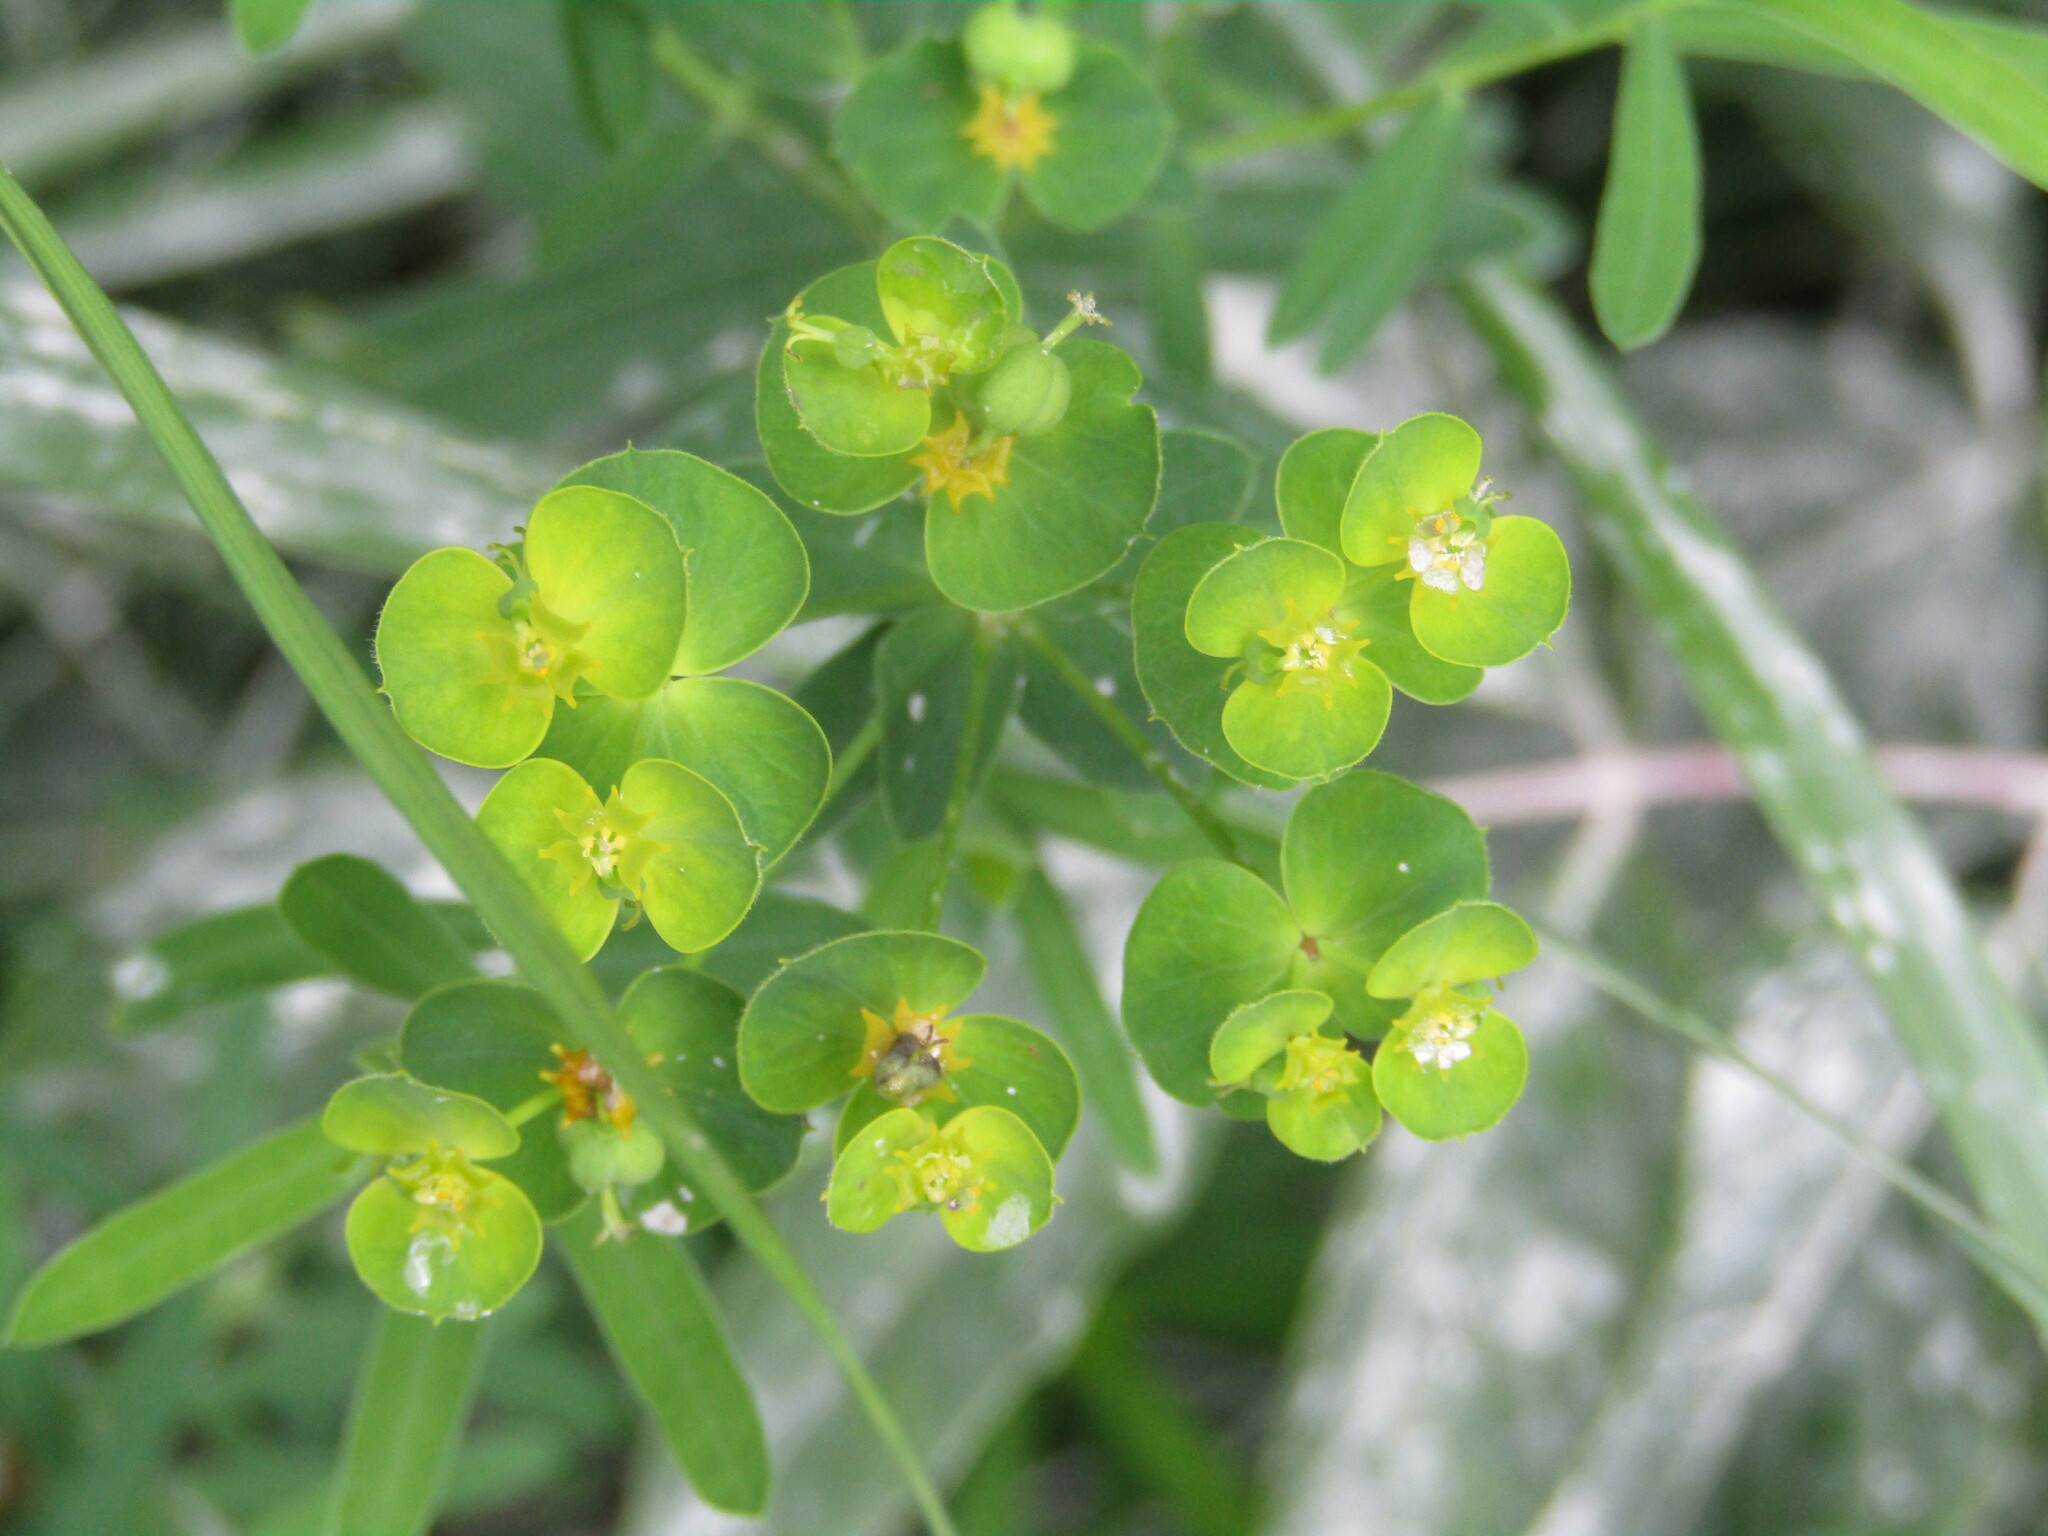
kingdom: Plantae
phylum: Tracheophyta
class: Magnoliopsida
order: Malpighiales
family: Euphorbiaceae
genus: Euphorbia
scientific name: Euphorbia virgata
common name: Leafy spurge
